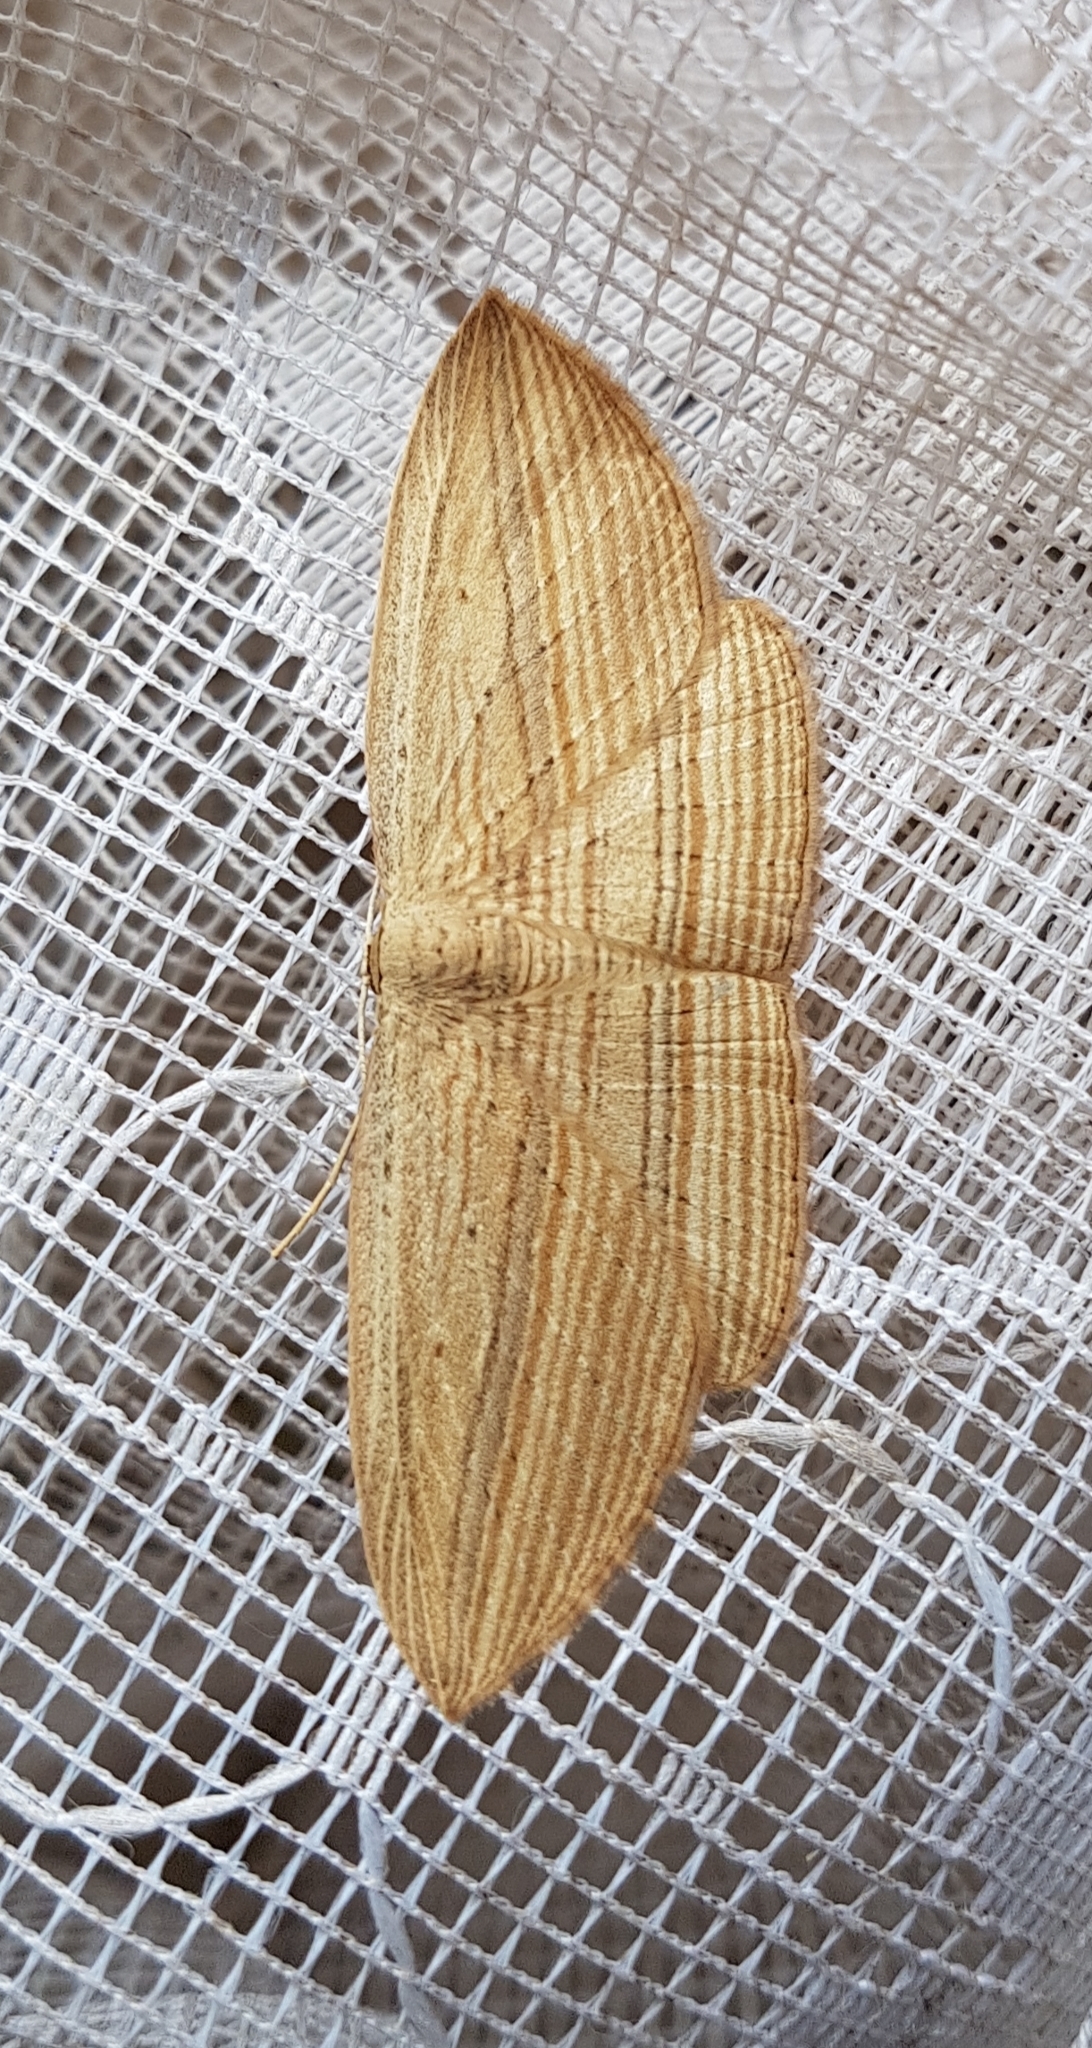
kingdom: Animalia
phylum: Arthropoda
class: Insecta
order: Lepidoptera
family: Geometridae
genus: Epiphryne
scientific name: Epiphryne verriculata
